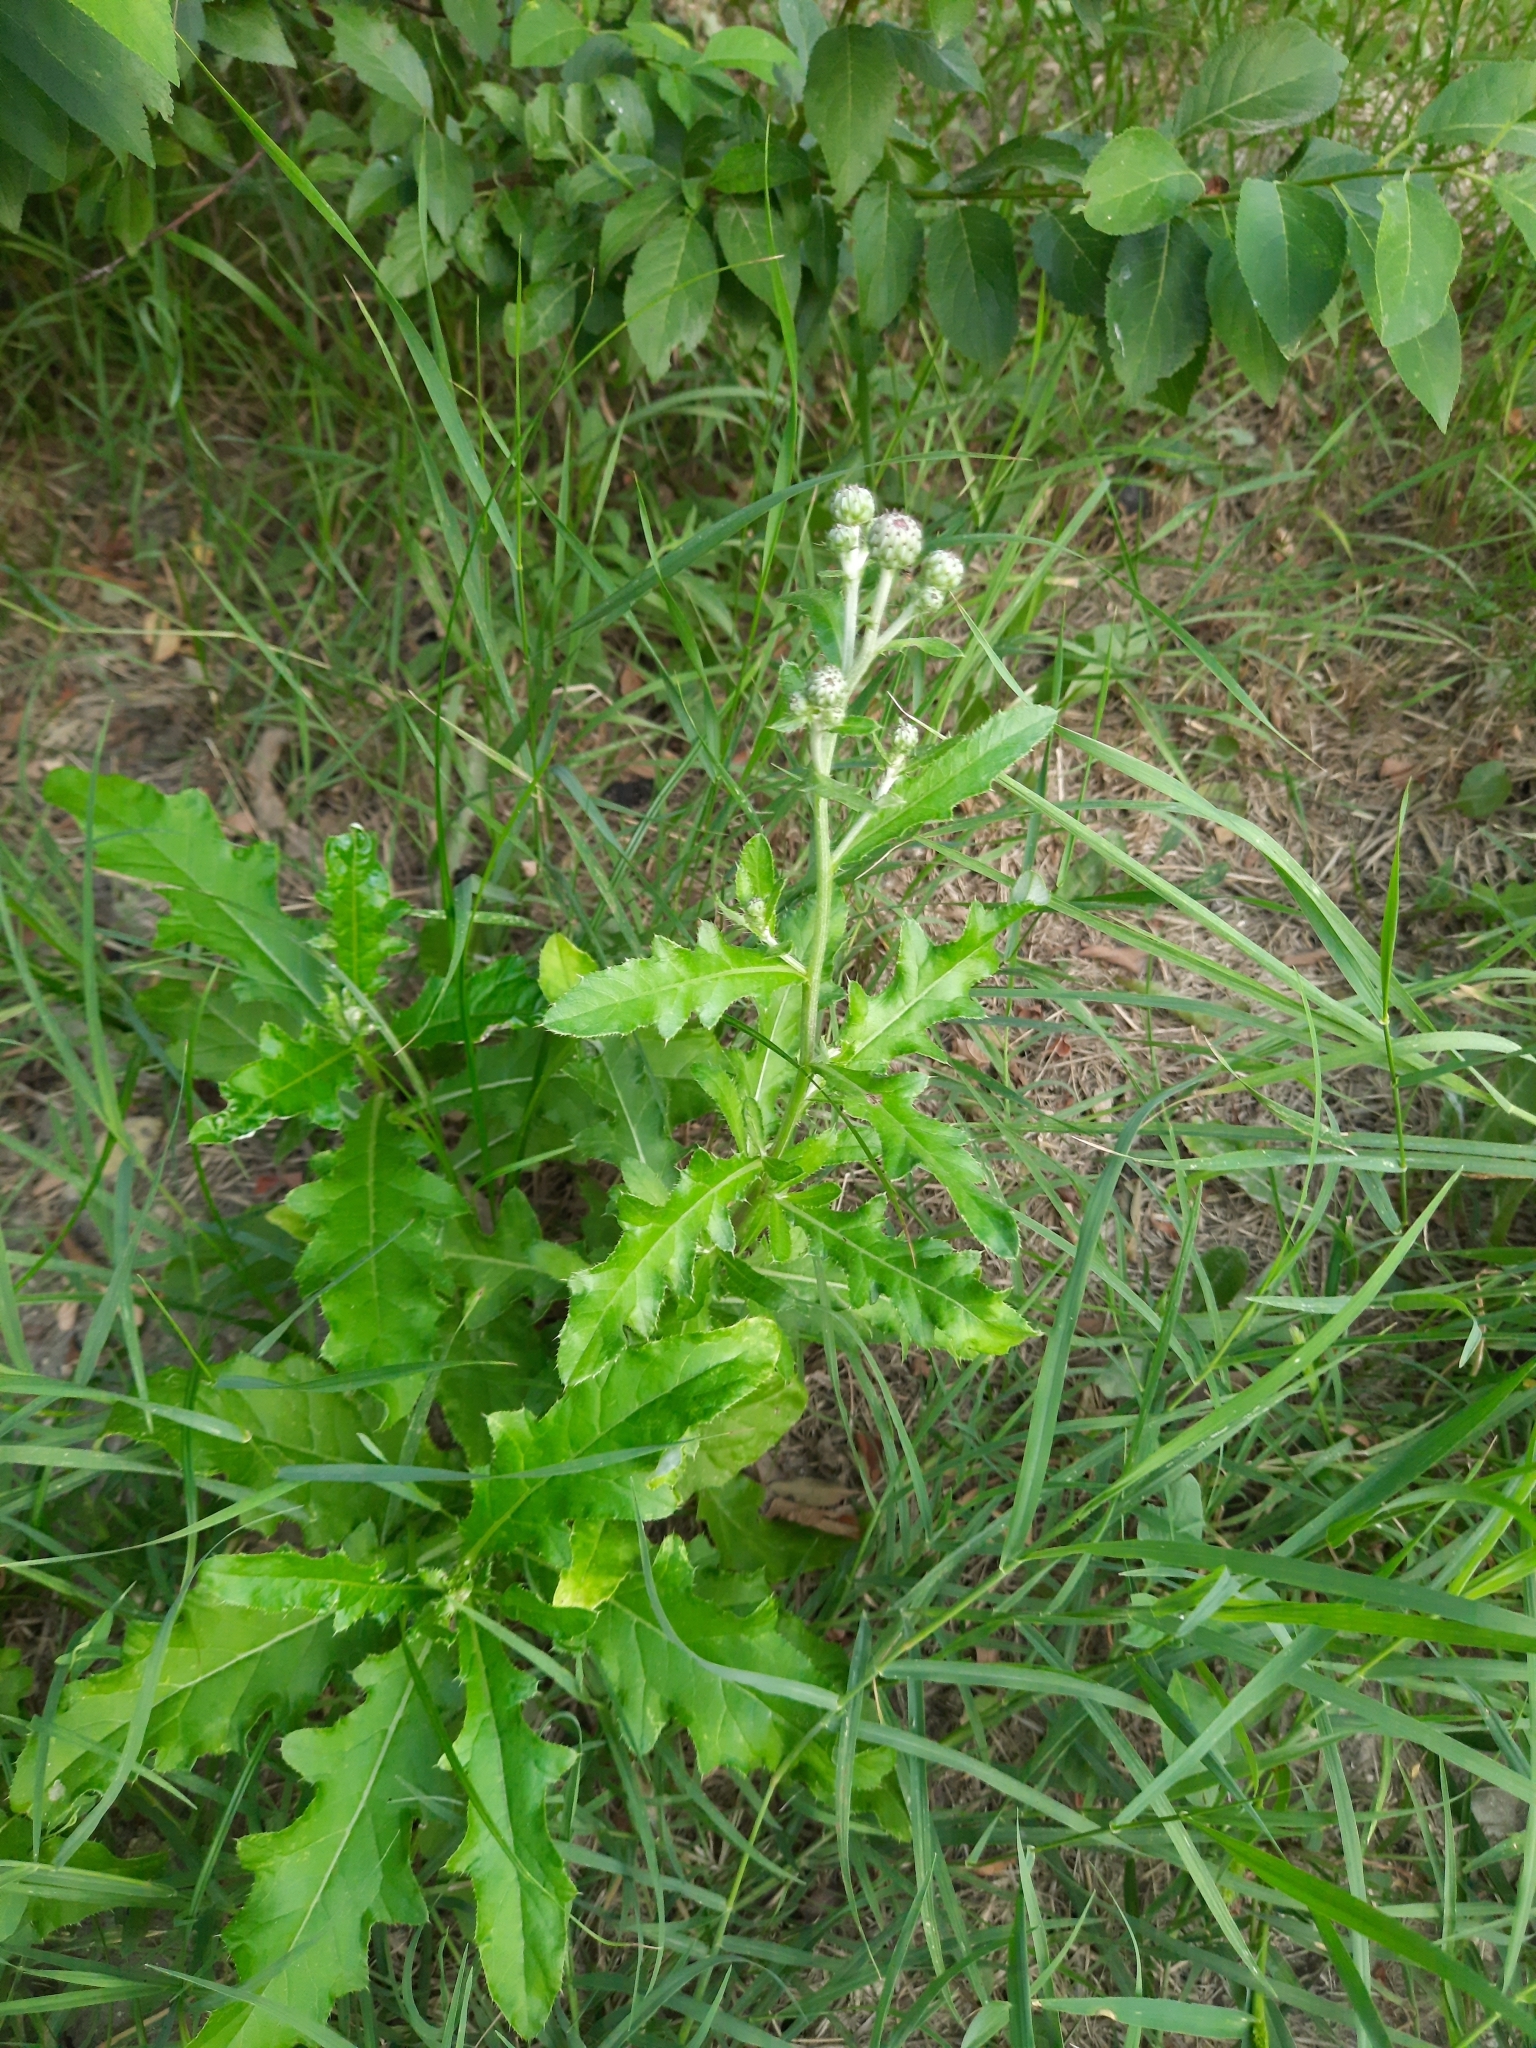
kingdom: Plantae
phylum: Tracheophyta
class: Magnoliopsida
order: Asterales
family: Asteraceae
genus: Cirsium
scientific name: Cirsium arvense
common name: Creeping thistle
